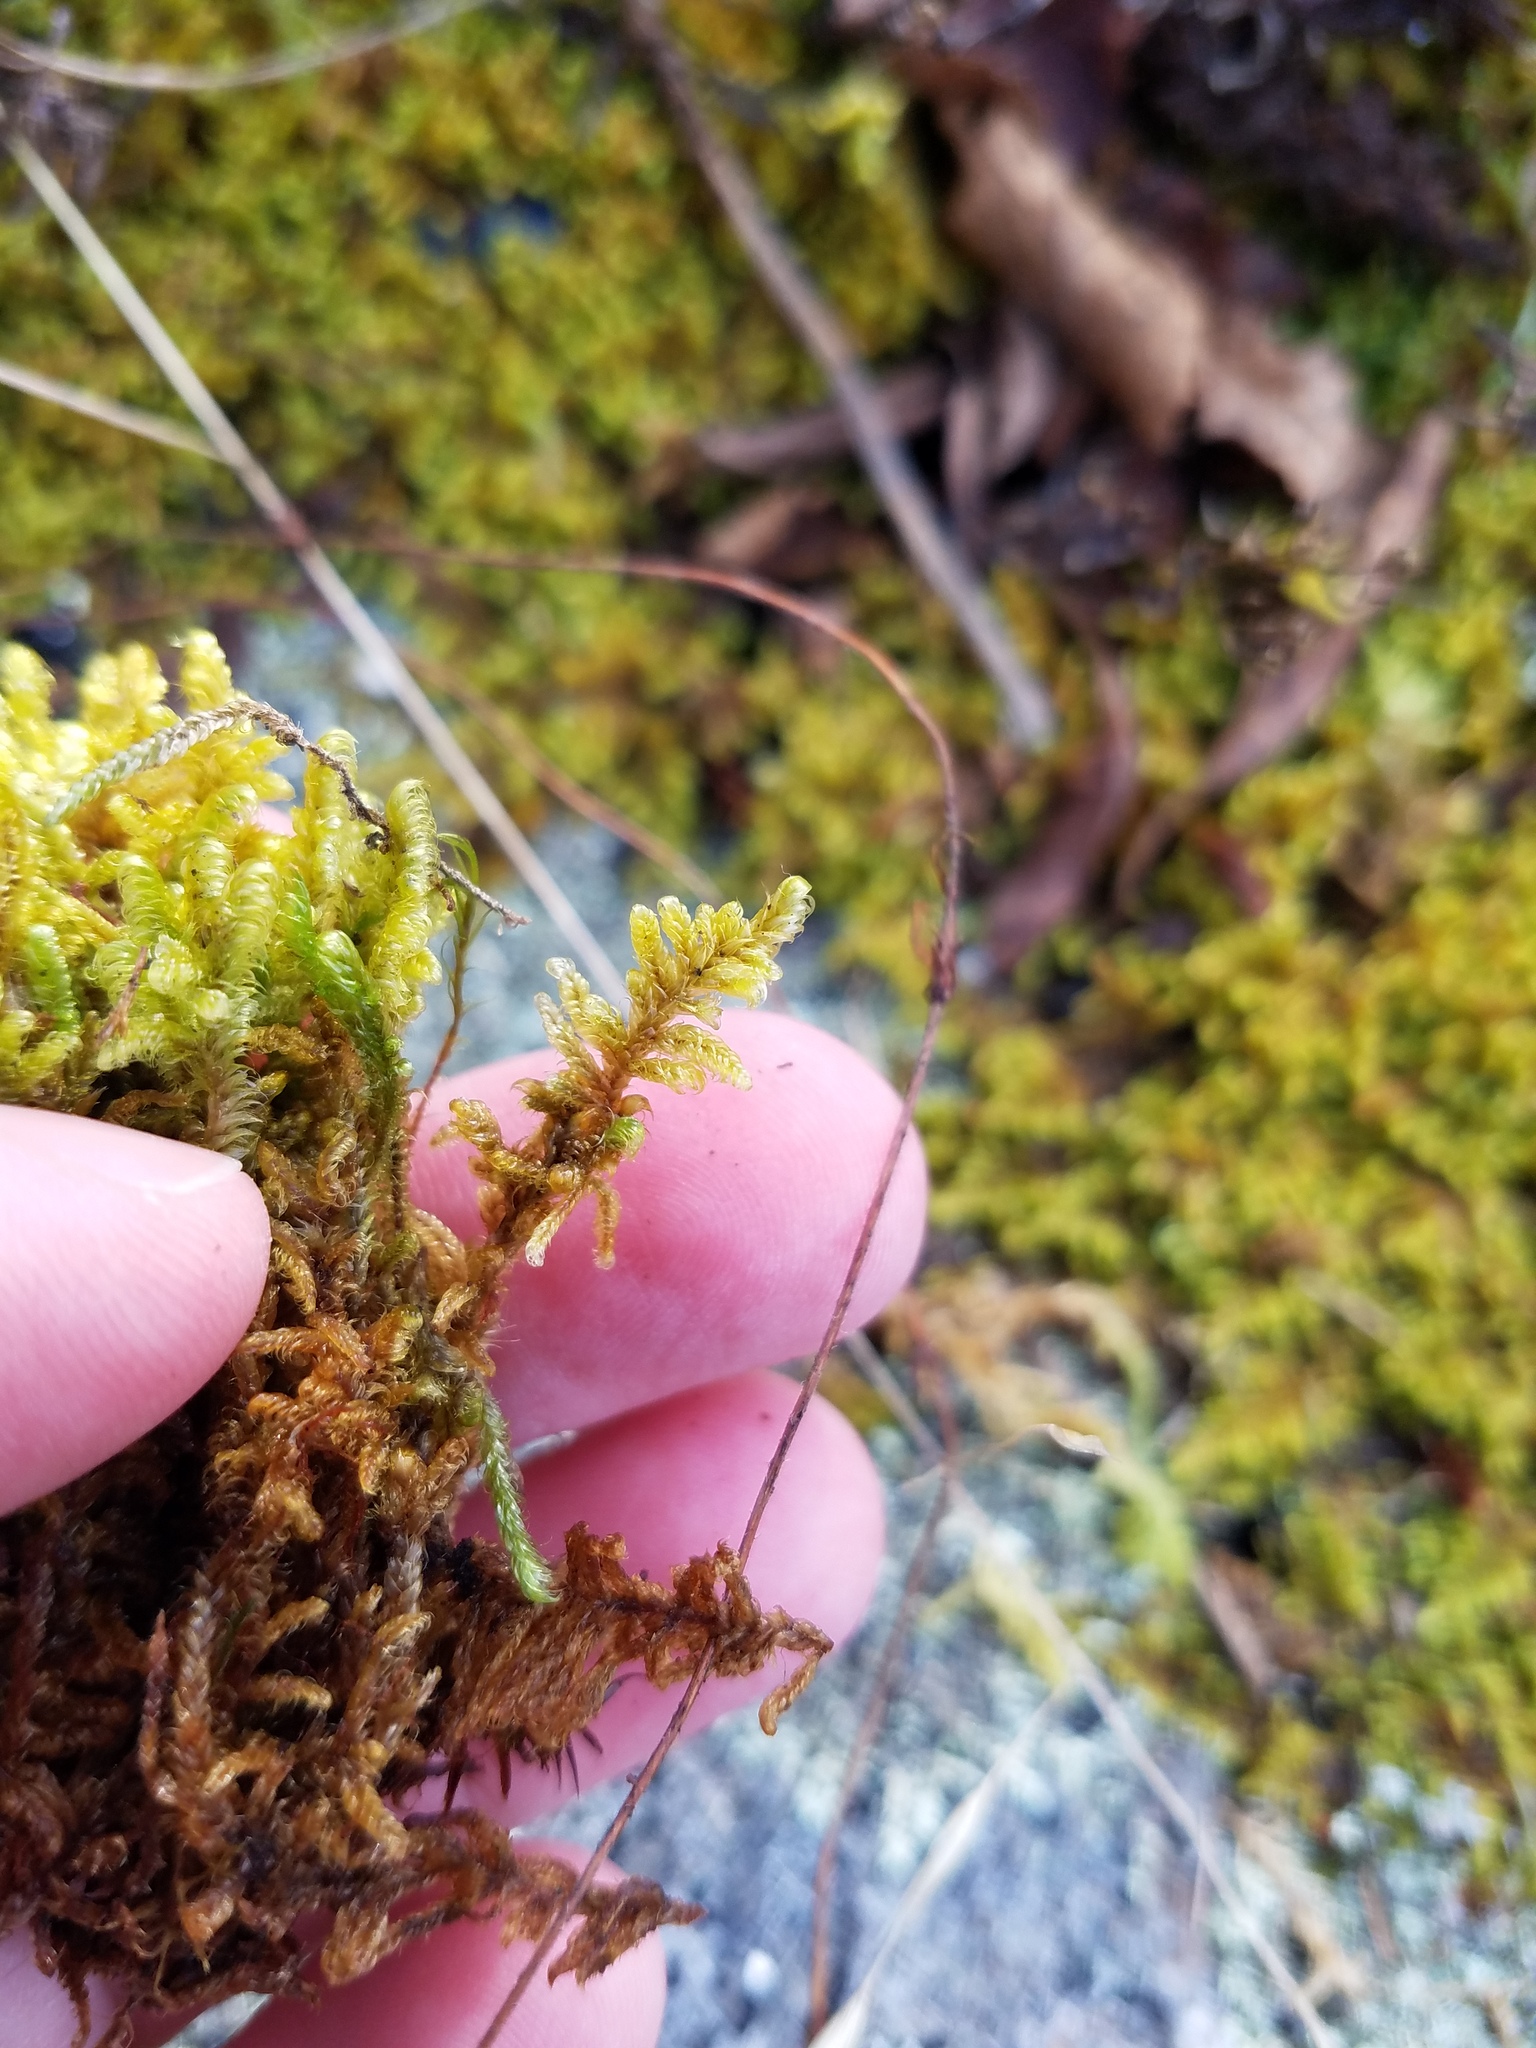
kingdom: Plantae
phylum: Bryophyta
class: Bryopsida
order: Hypnales
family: Callicladiaceae
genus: Callicladium
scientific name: Callicladium imponens
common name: Brocade moss
